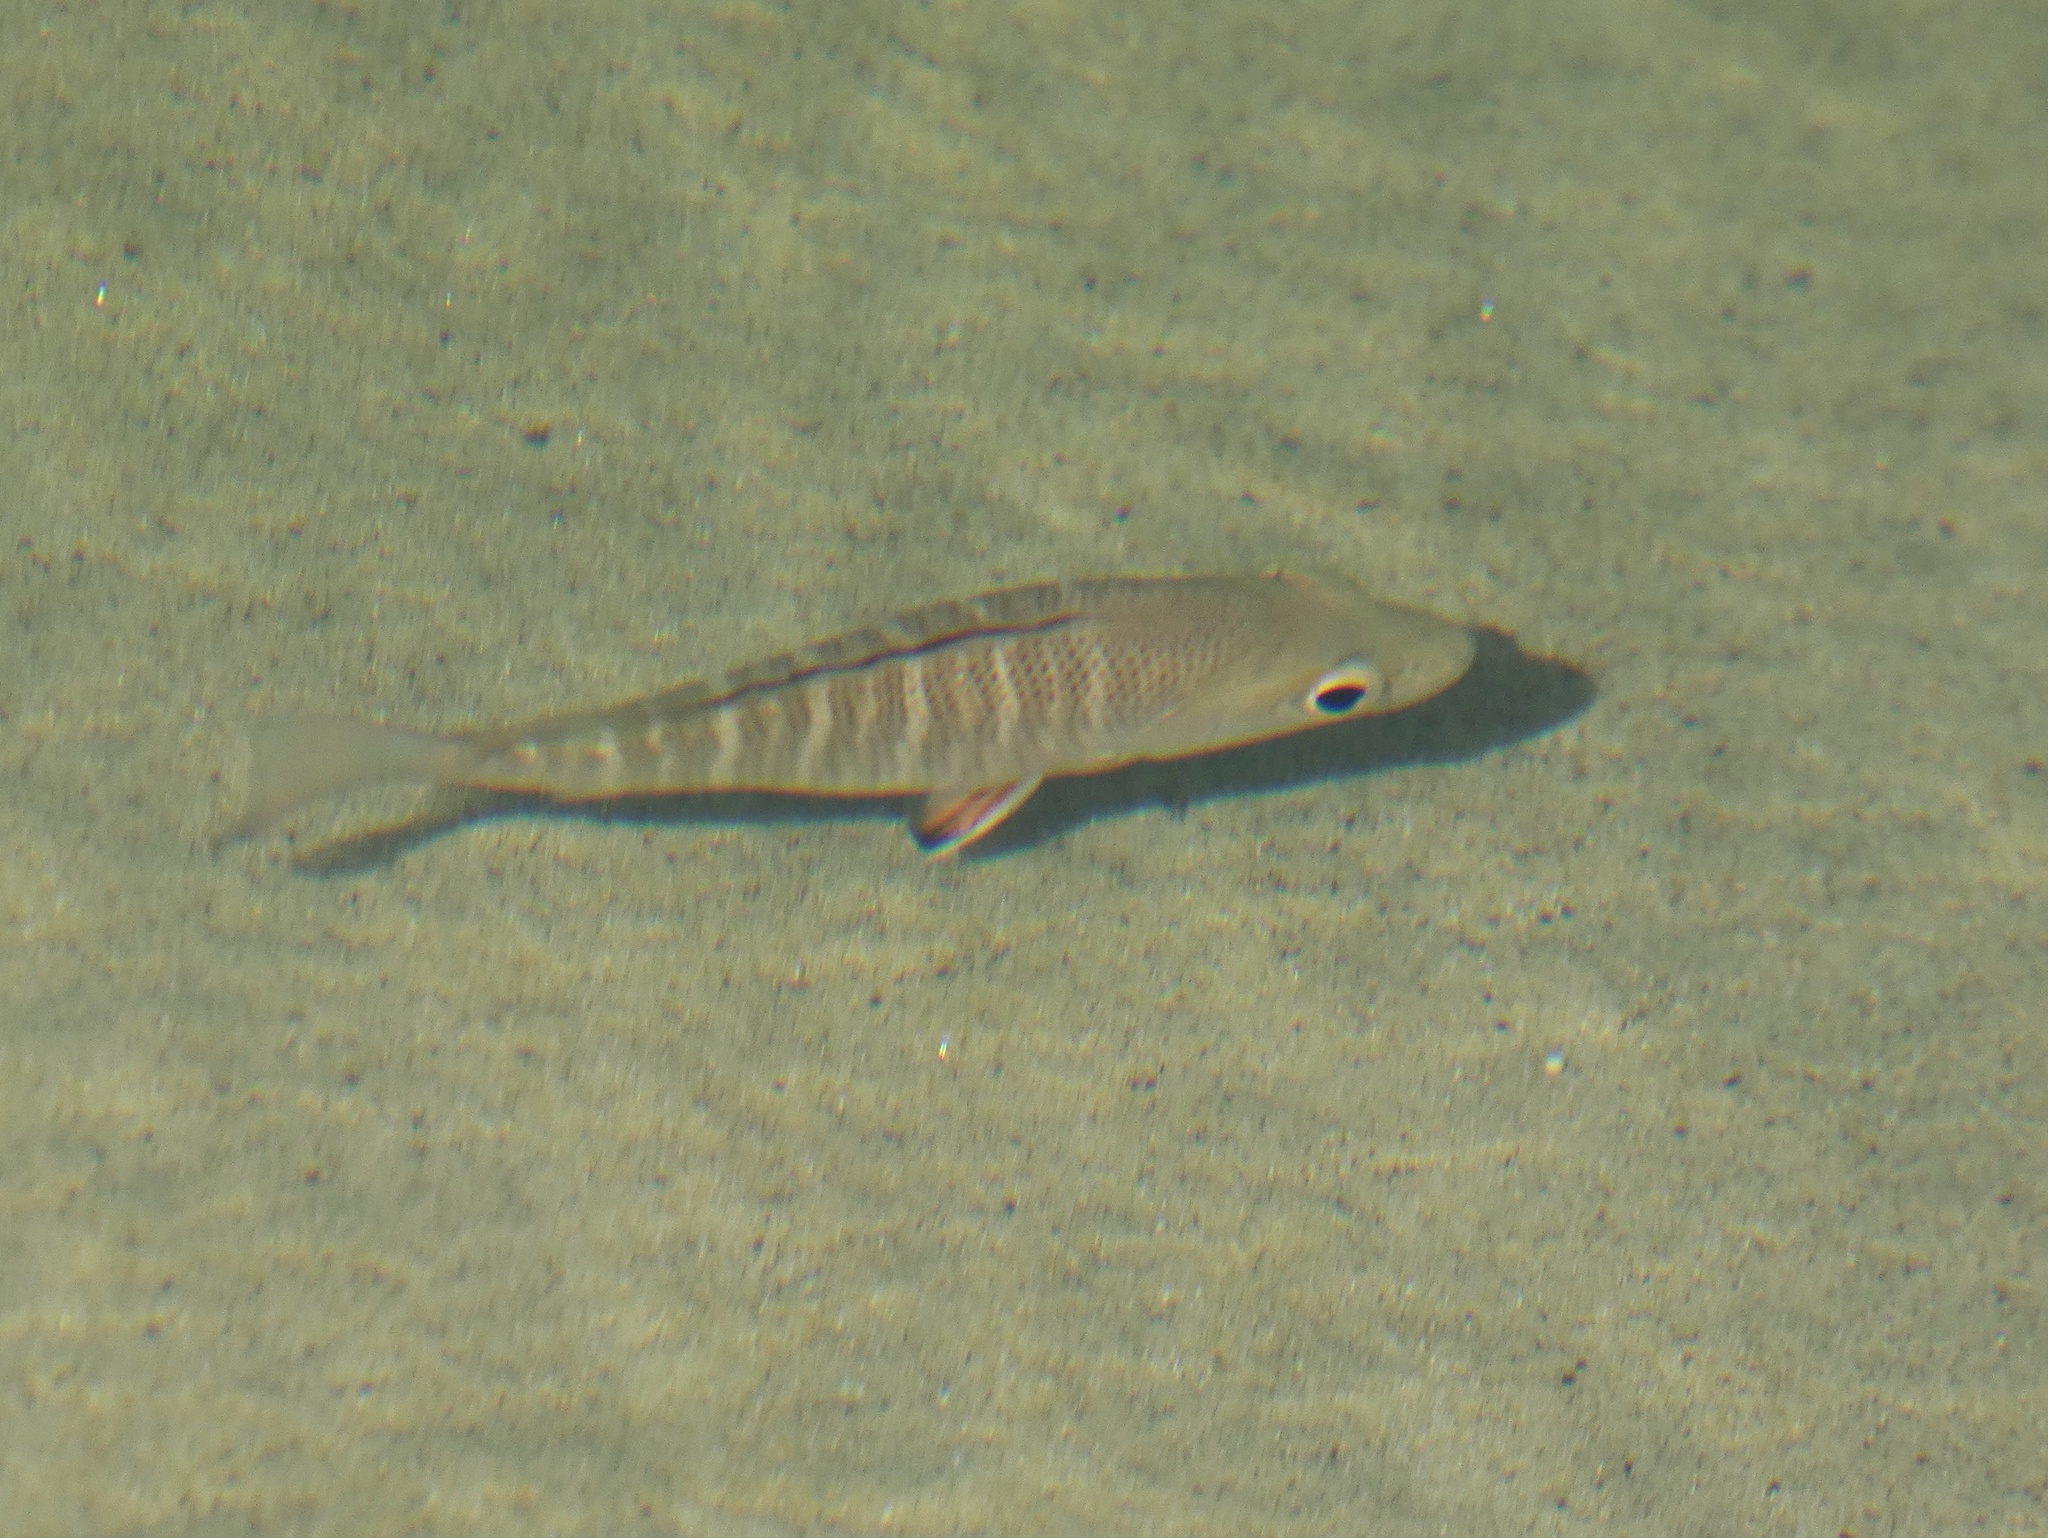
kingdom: Animalia
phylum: Chordata
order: Perciformes
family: Lutjanidae
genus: Lutjanus
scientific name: Lutjanus argentimaculatus
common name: Mangrove red snapper
